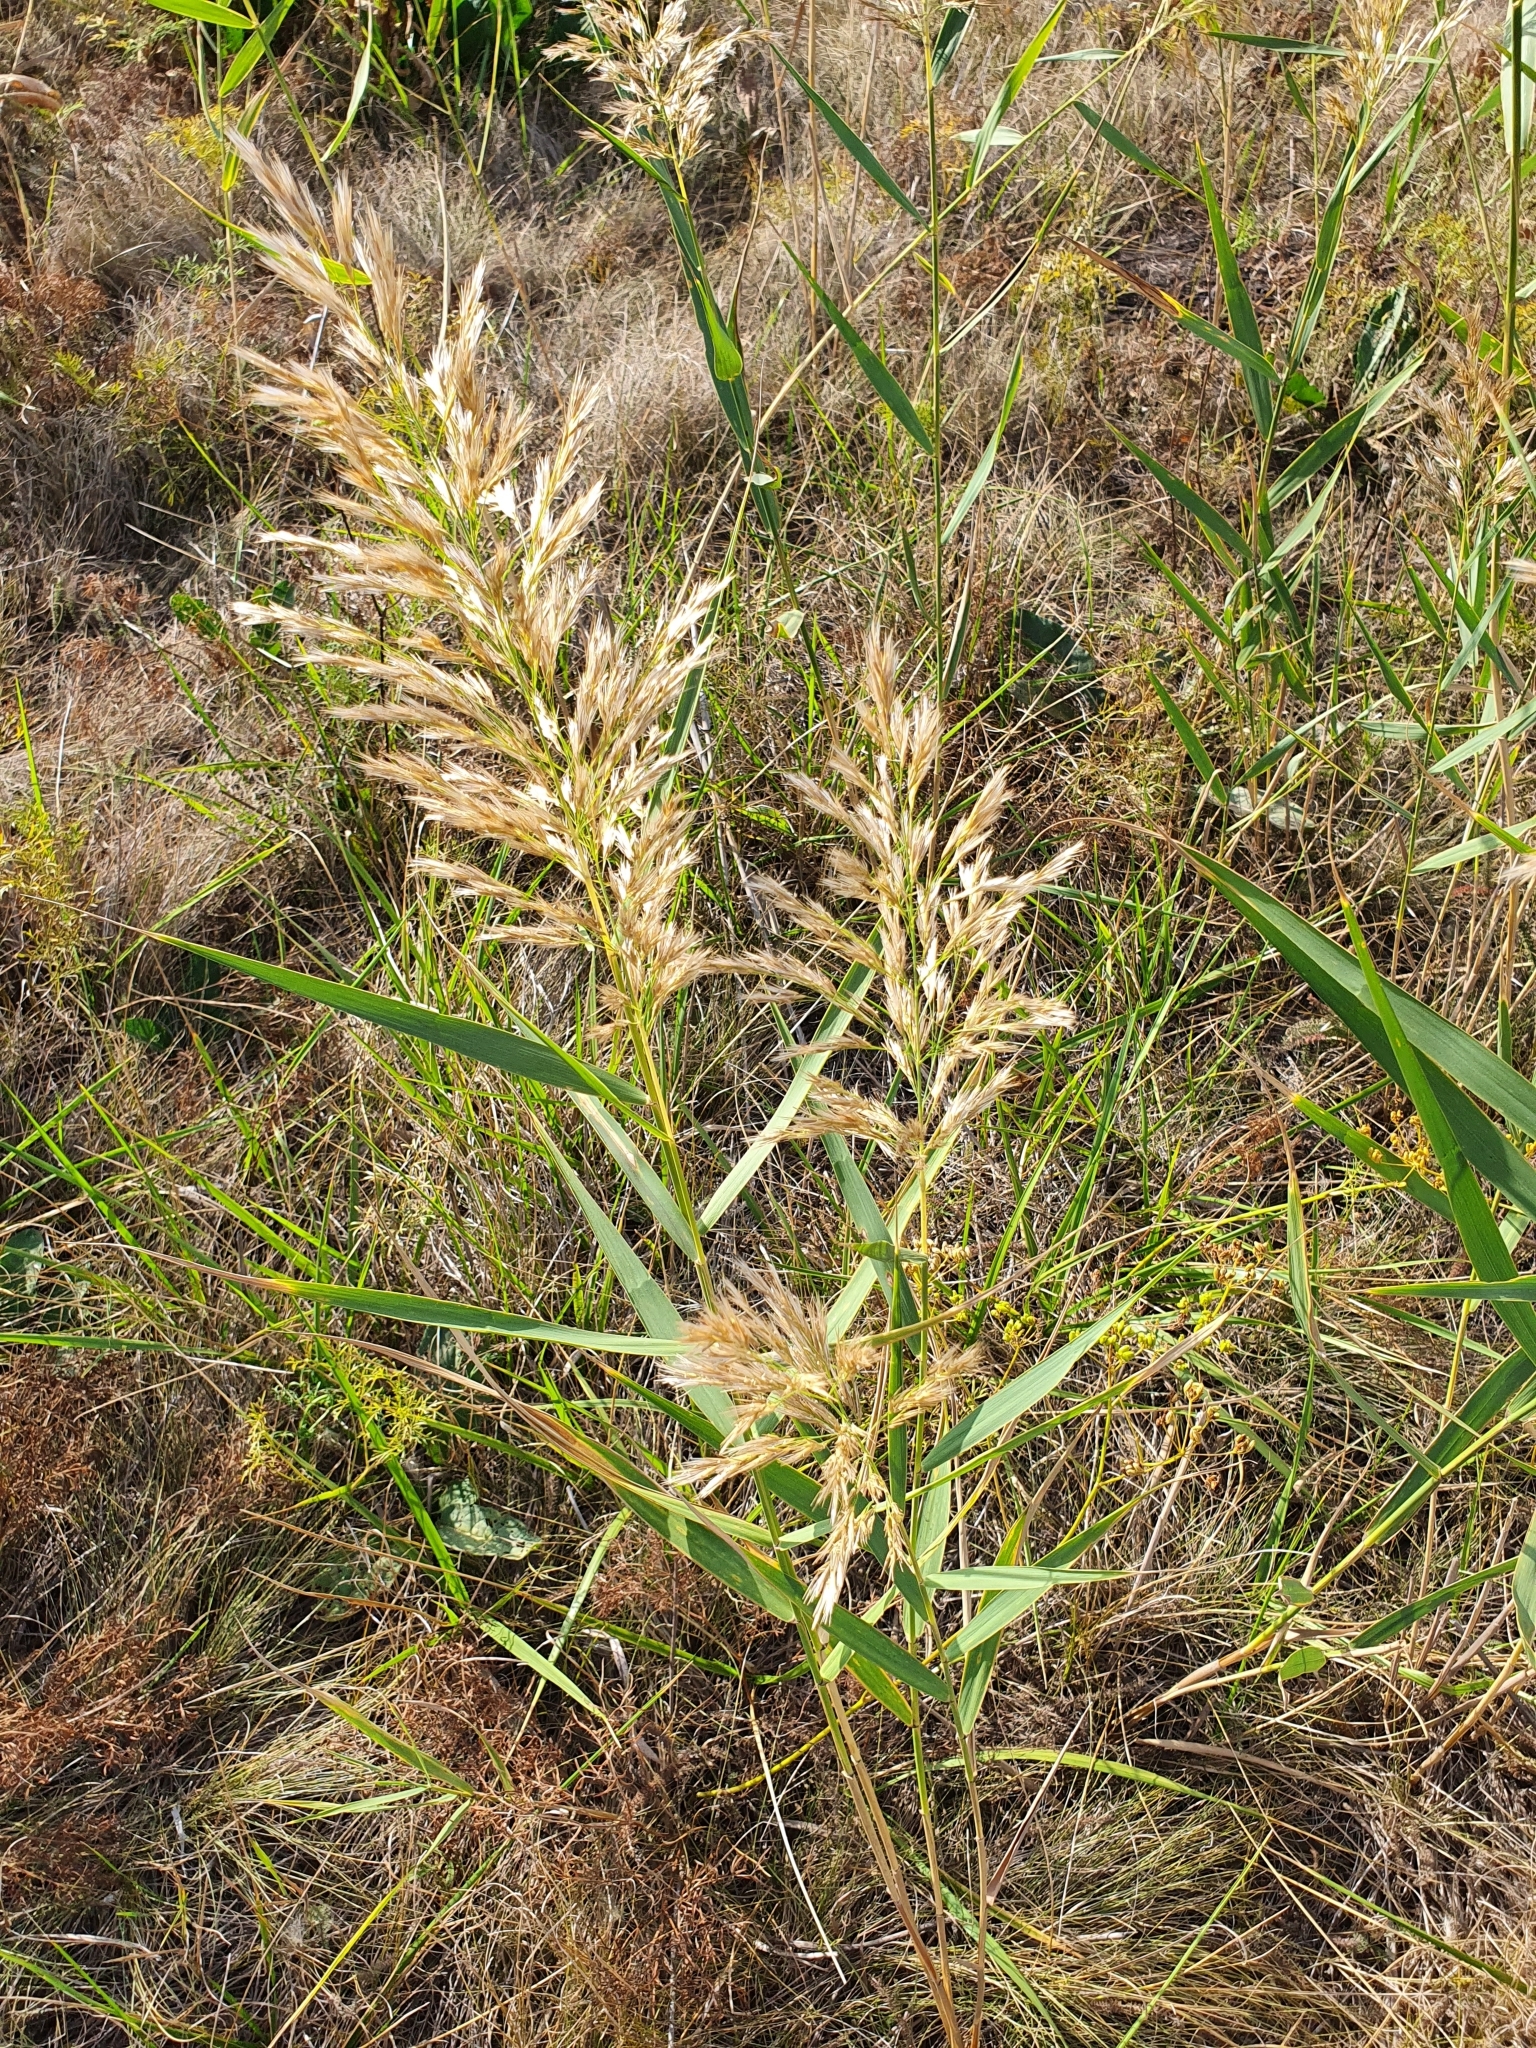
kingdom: Plantae
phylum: Tracheophyta
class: Liliopsida
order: Poales
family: Poaceae
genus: Phragmites
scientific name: Phragmites australis
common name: Common reed
